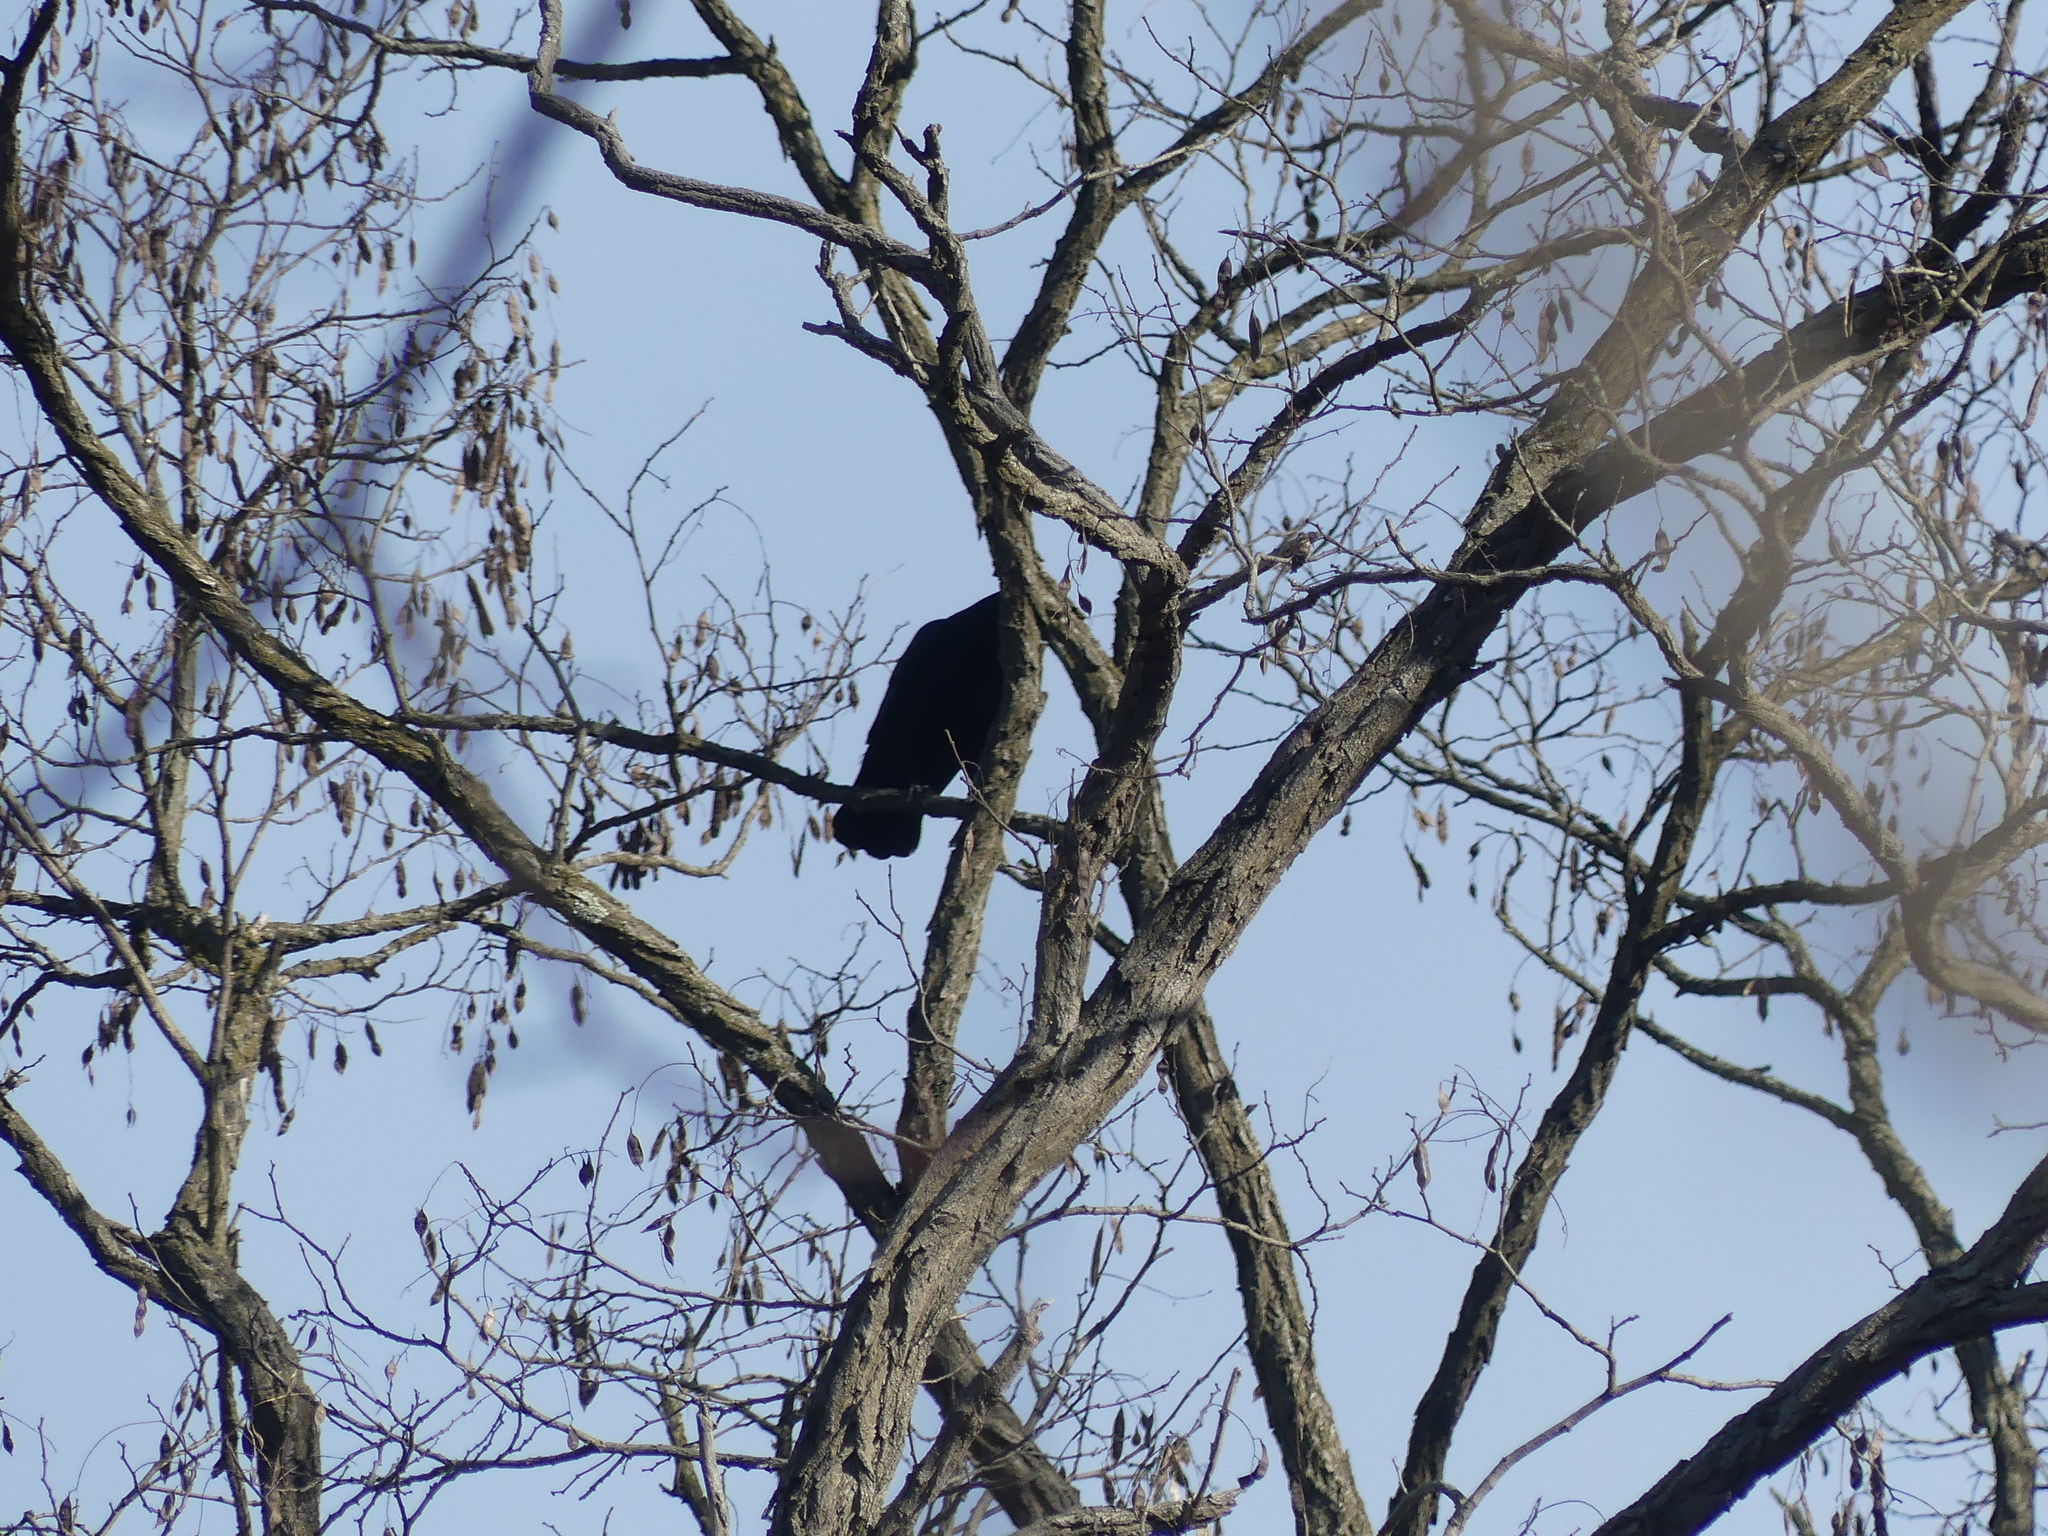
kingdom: Animalia
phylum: Chordata
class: Aves
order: Passeriformes
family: Corvidae
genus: Corvus
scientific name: Corvus brachyrhynchos
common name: American crow
